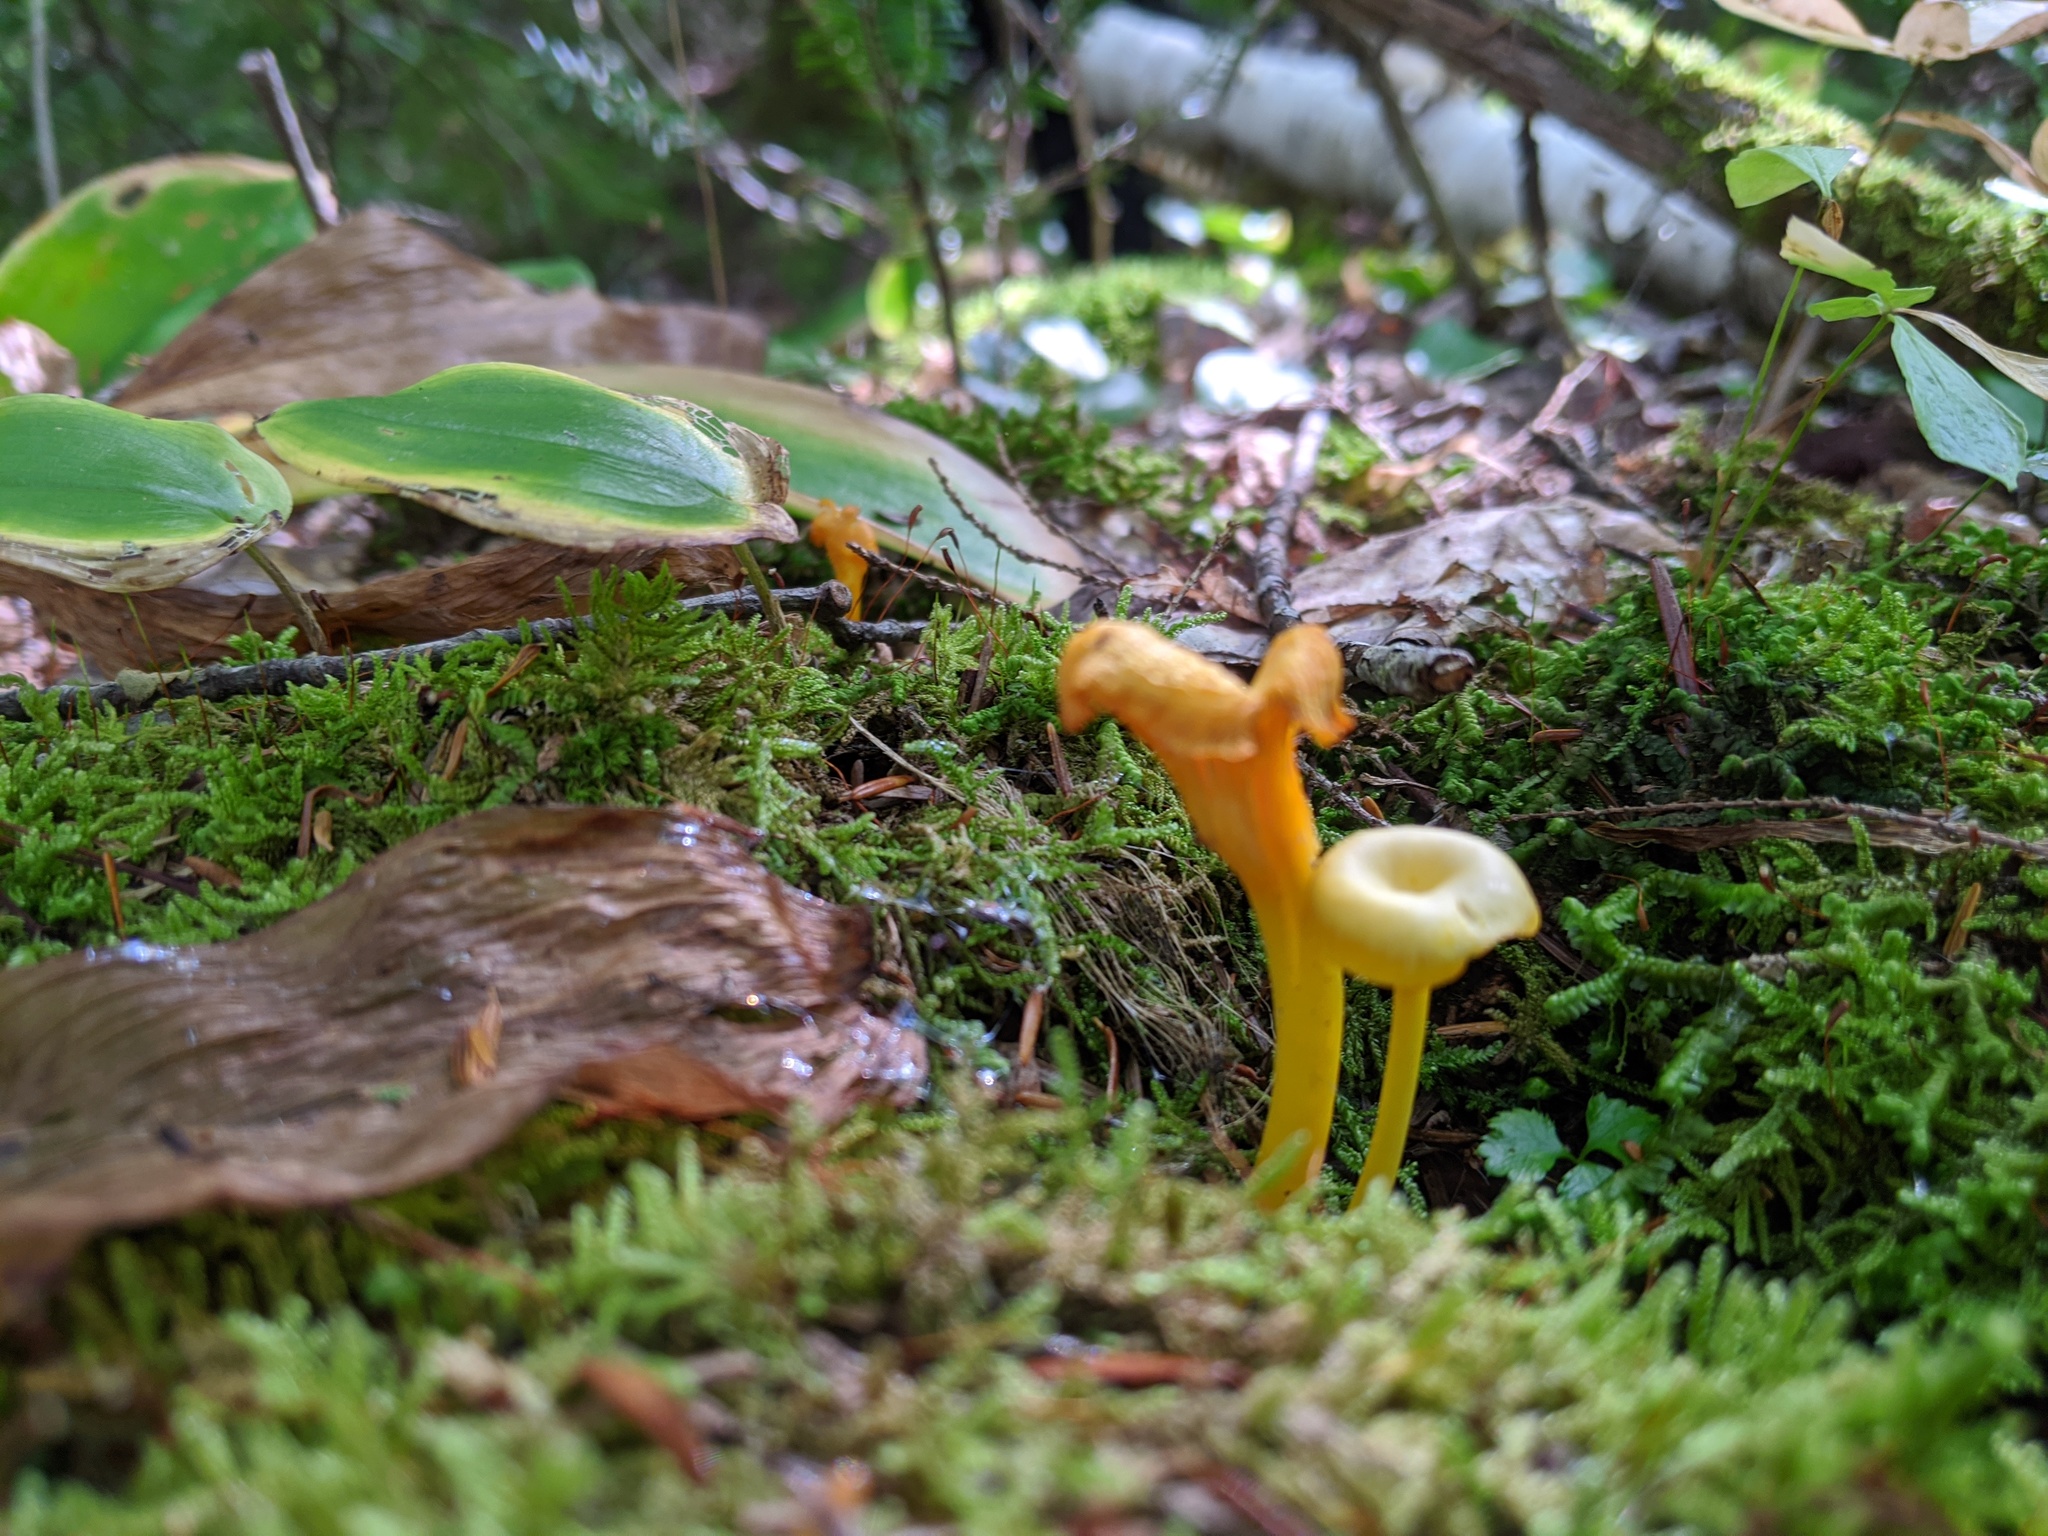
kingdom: Fungi
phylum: Basidiomycota
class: Agaricomycetes
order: Agaricales
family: Hygrophoraceae
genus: Gloioxanthomyces
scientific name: Gloioxanthomyces nitidus
